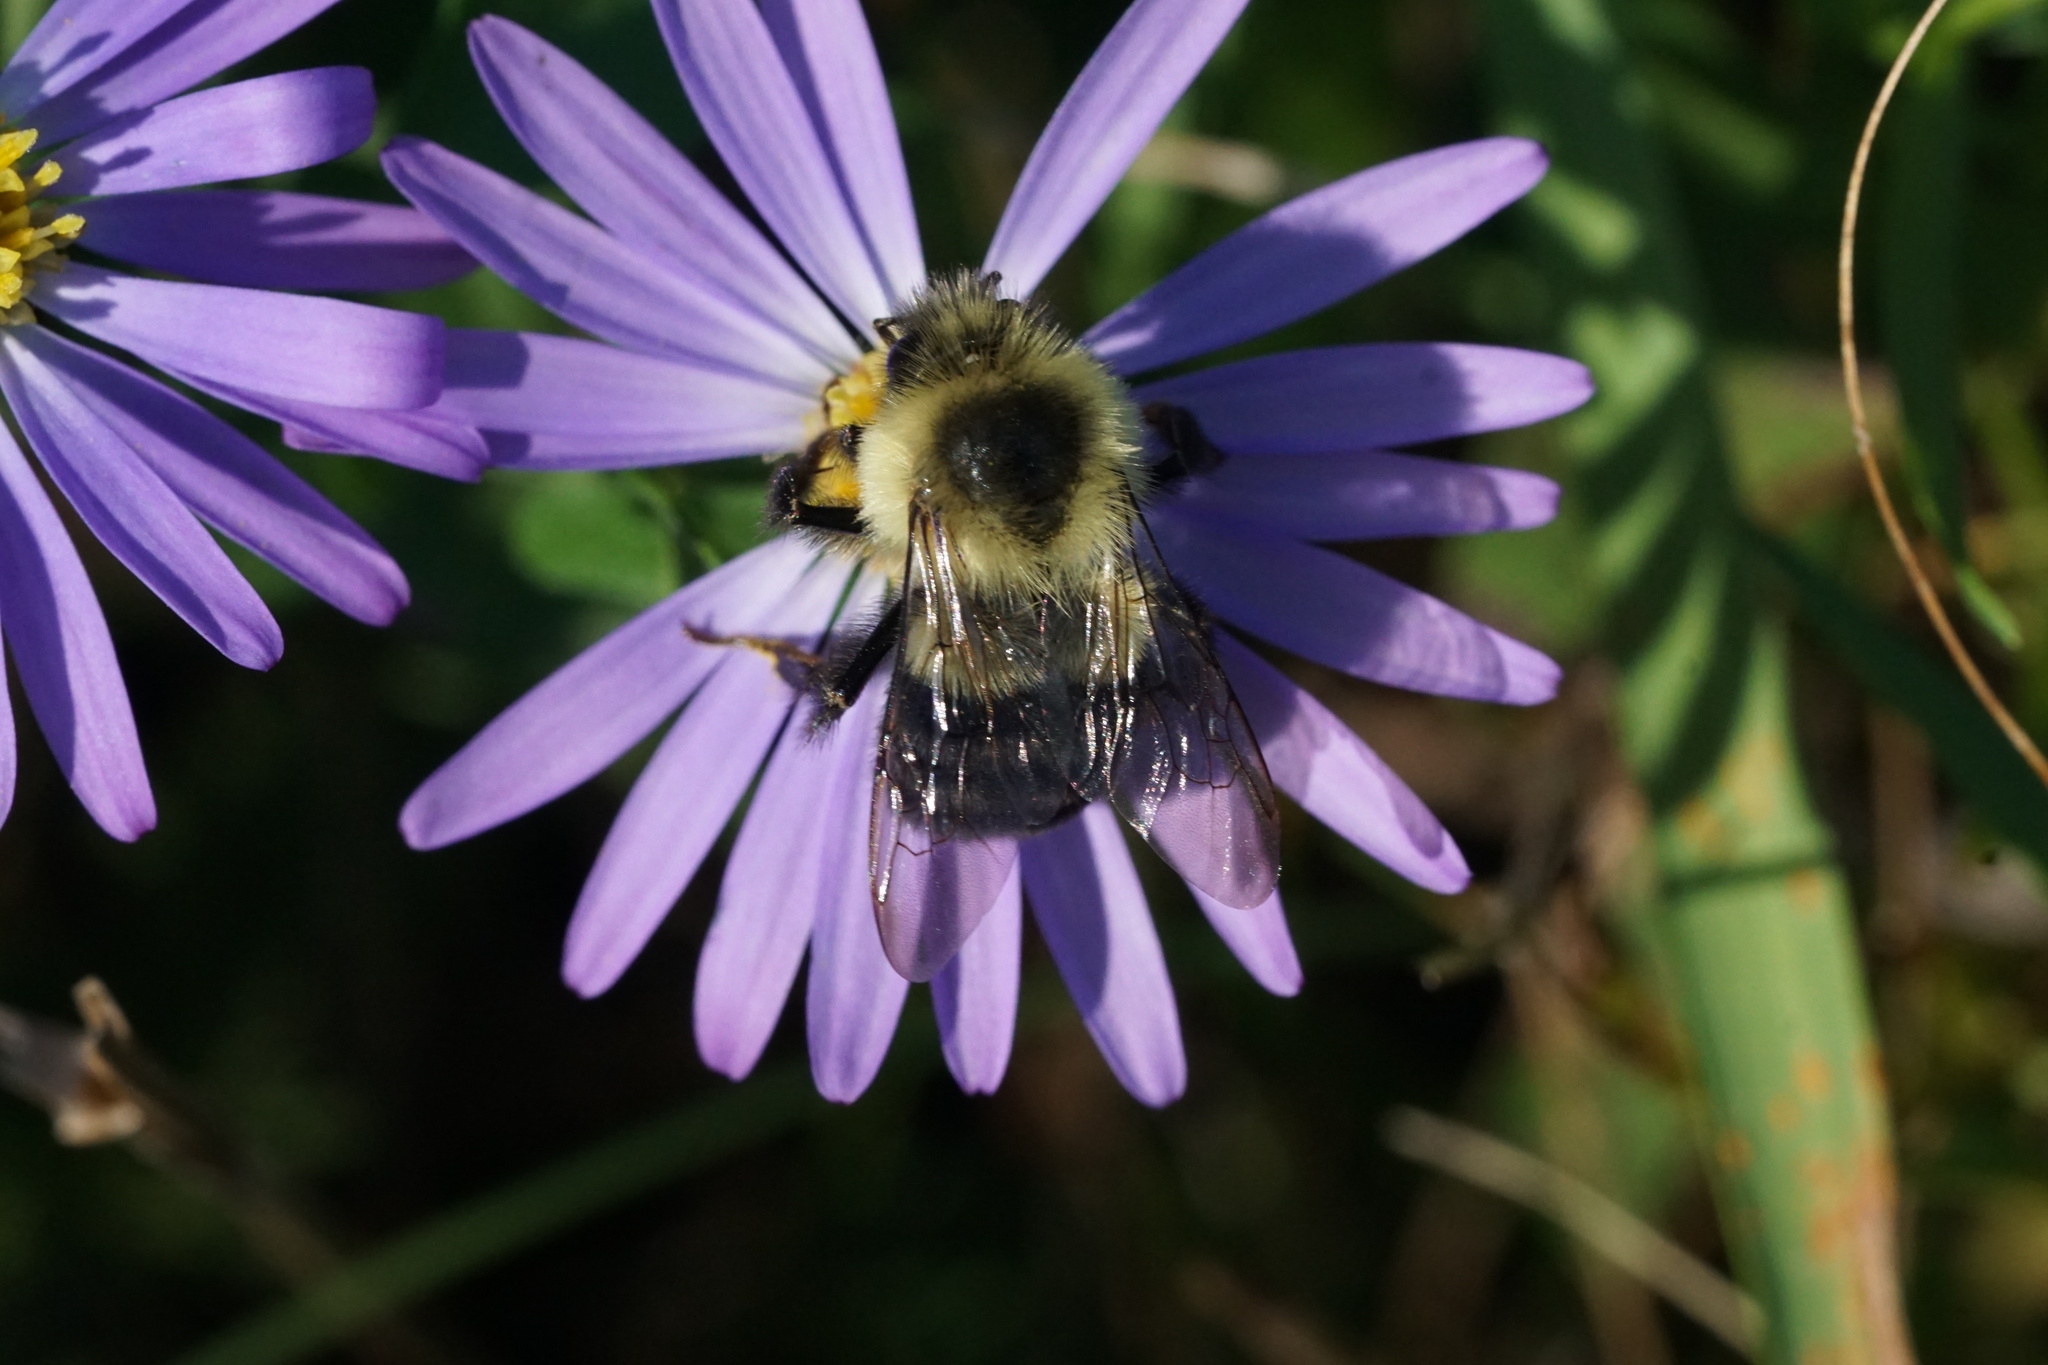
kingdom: Animalia
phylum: Arthropoda
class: Insecta
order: Hymenoptera
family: Apidae
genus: Bombus
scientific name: Bombus impatiens
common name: Common eastern bumble bee
